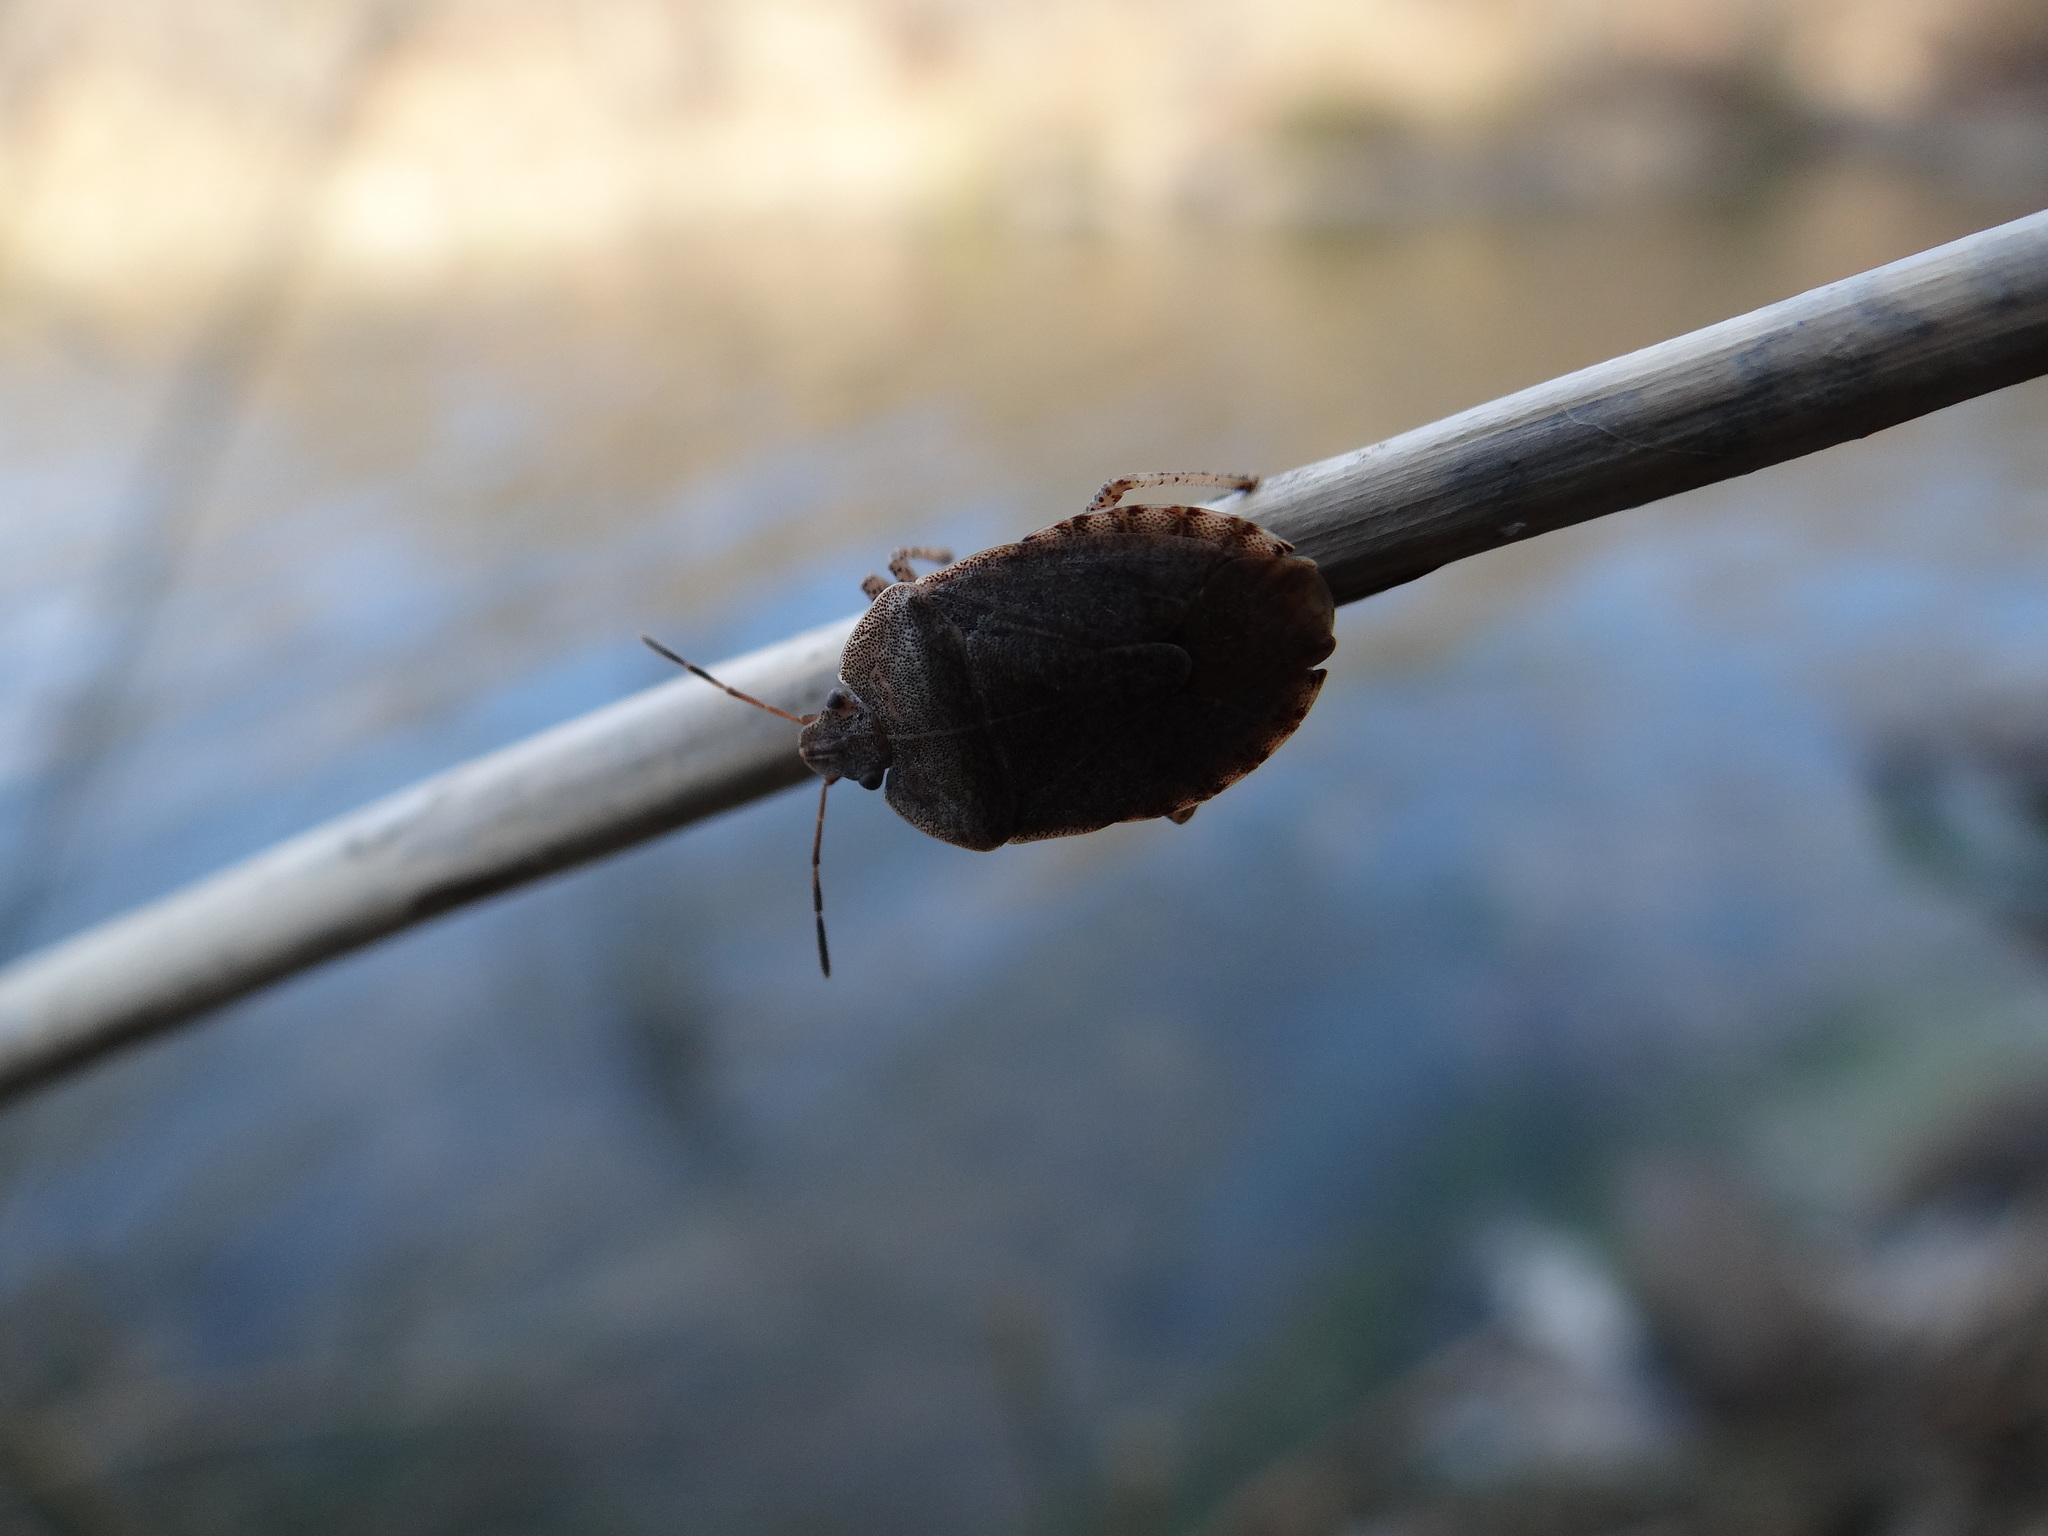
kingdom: Animalia
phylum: Arthropoda
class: Insecta
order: Hemiptera
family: Pentatomidae
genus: Menecles
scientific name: Menecles insertus
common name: Elf shoe stink bug
